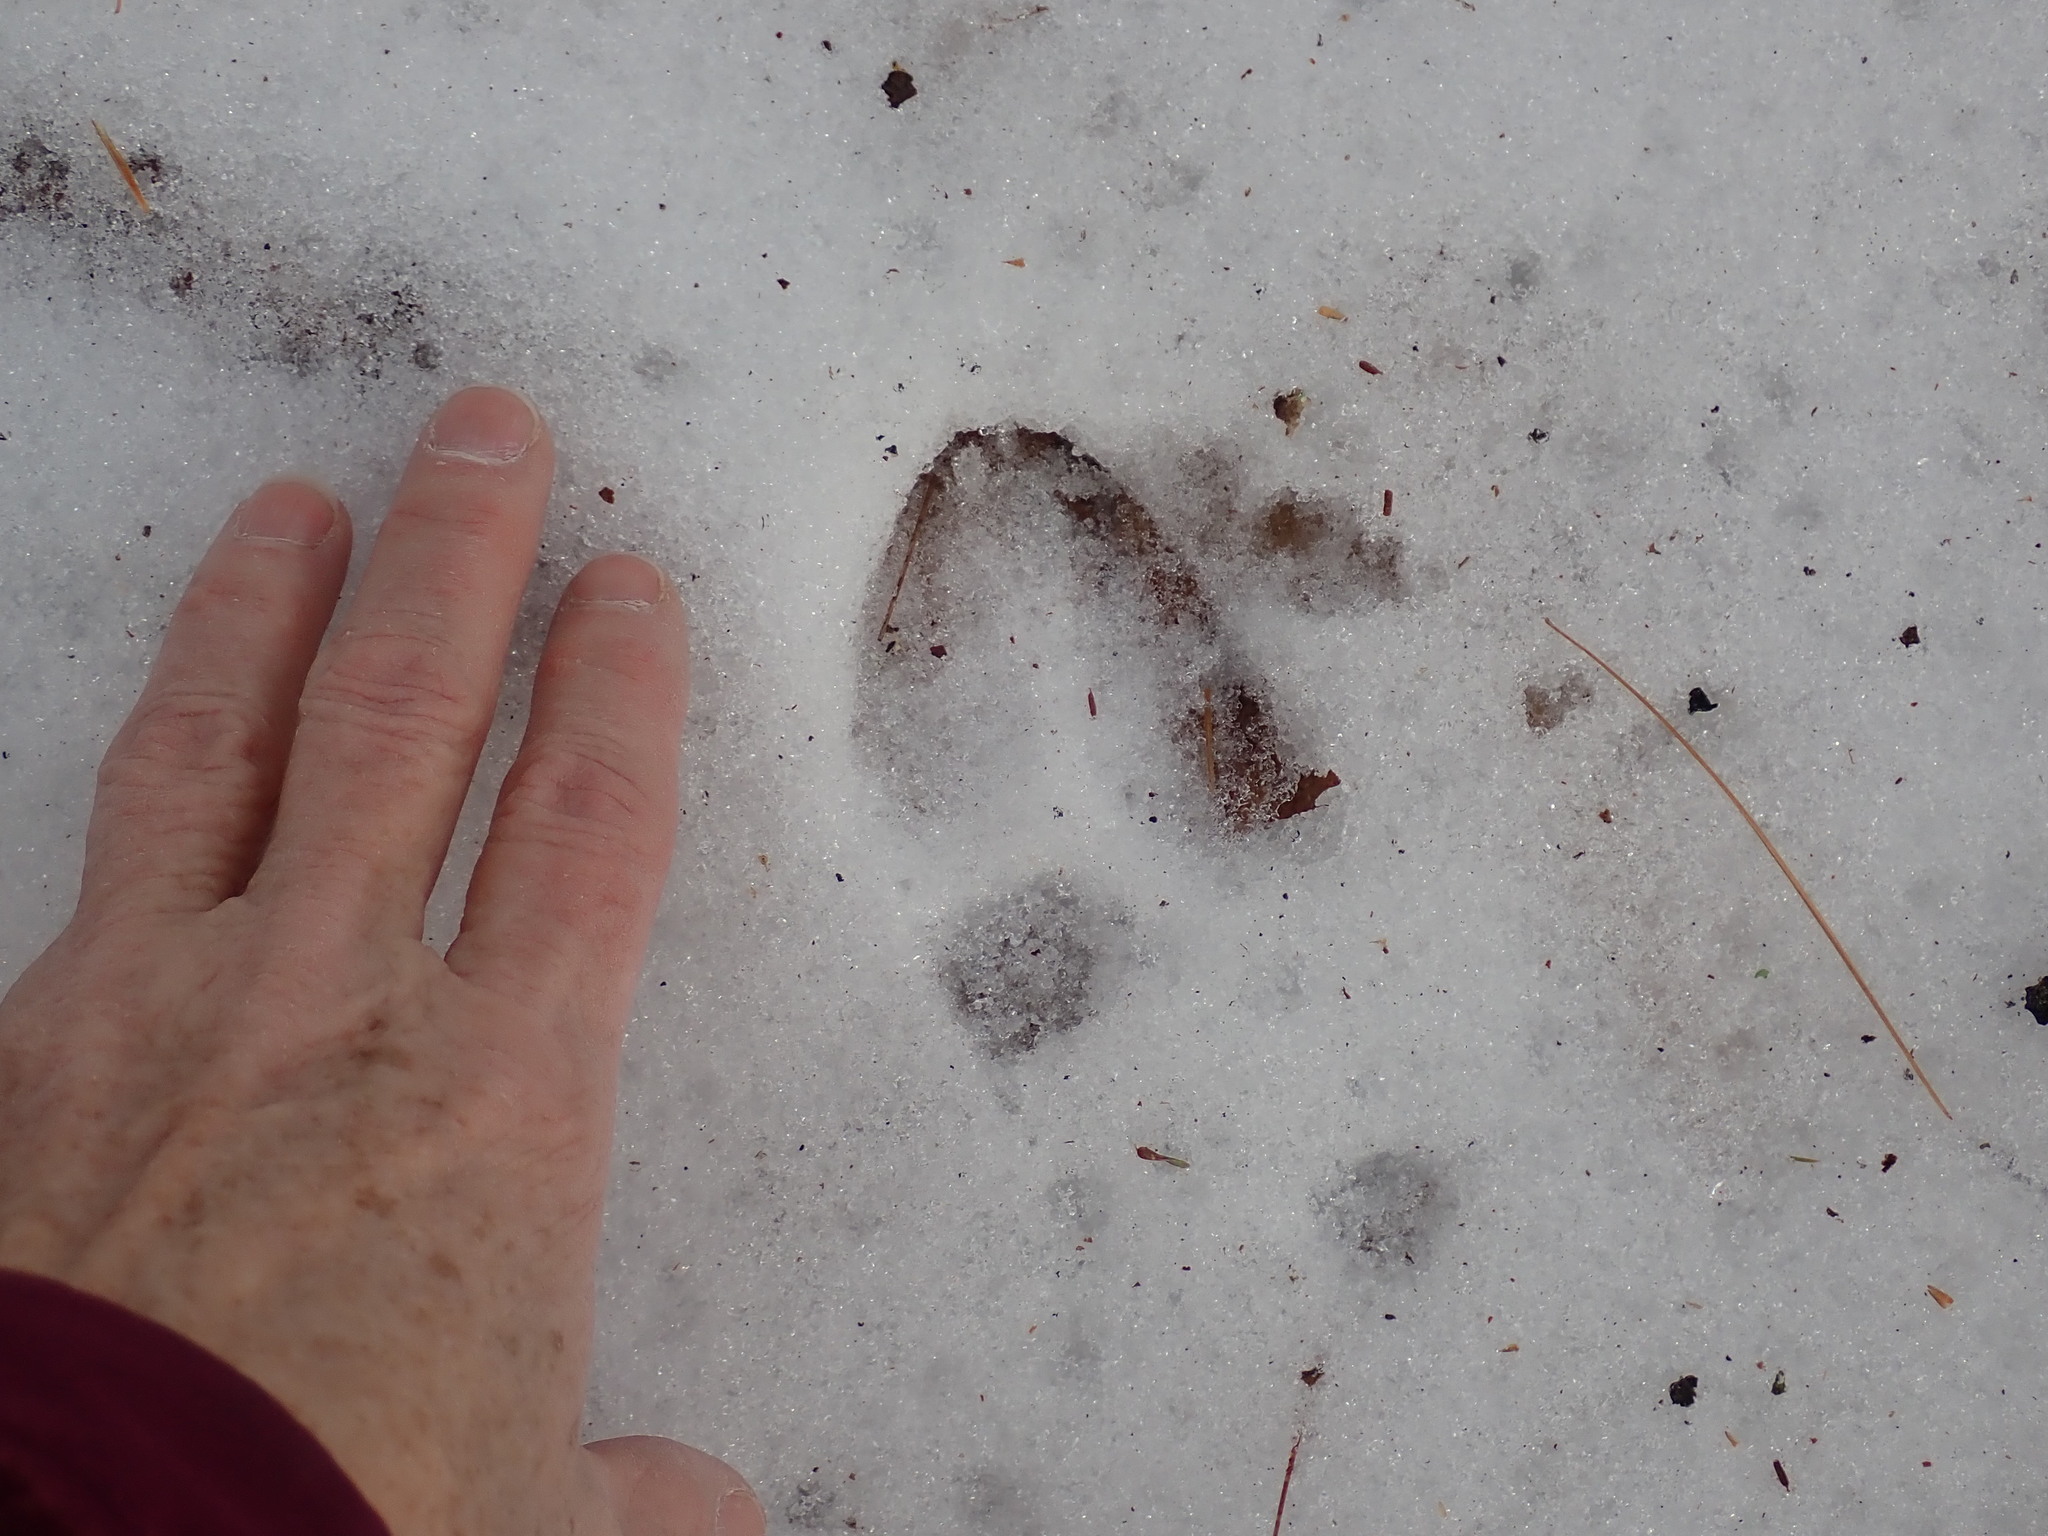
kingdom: Animalia
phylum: Chordata
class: Mammalia
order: Artiodactyla
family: Cervidae
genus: Odocoileus
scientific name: Odocoileus virginianus
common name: White-tailed deer
